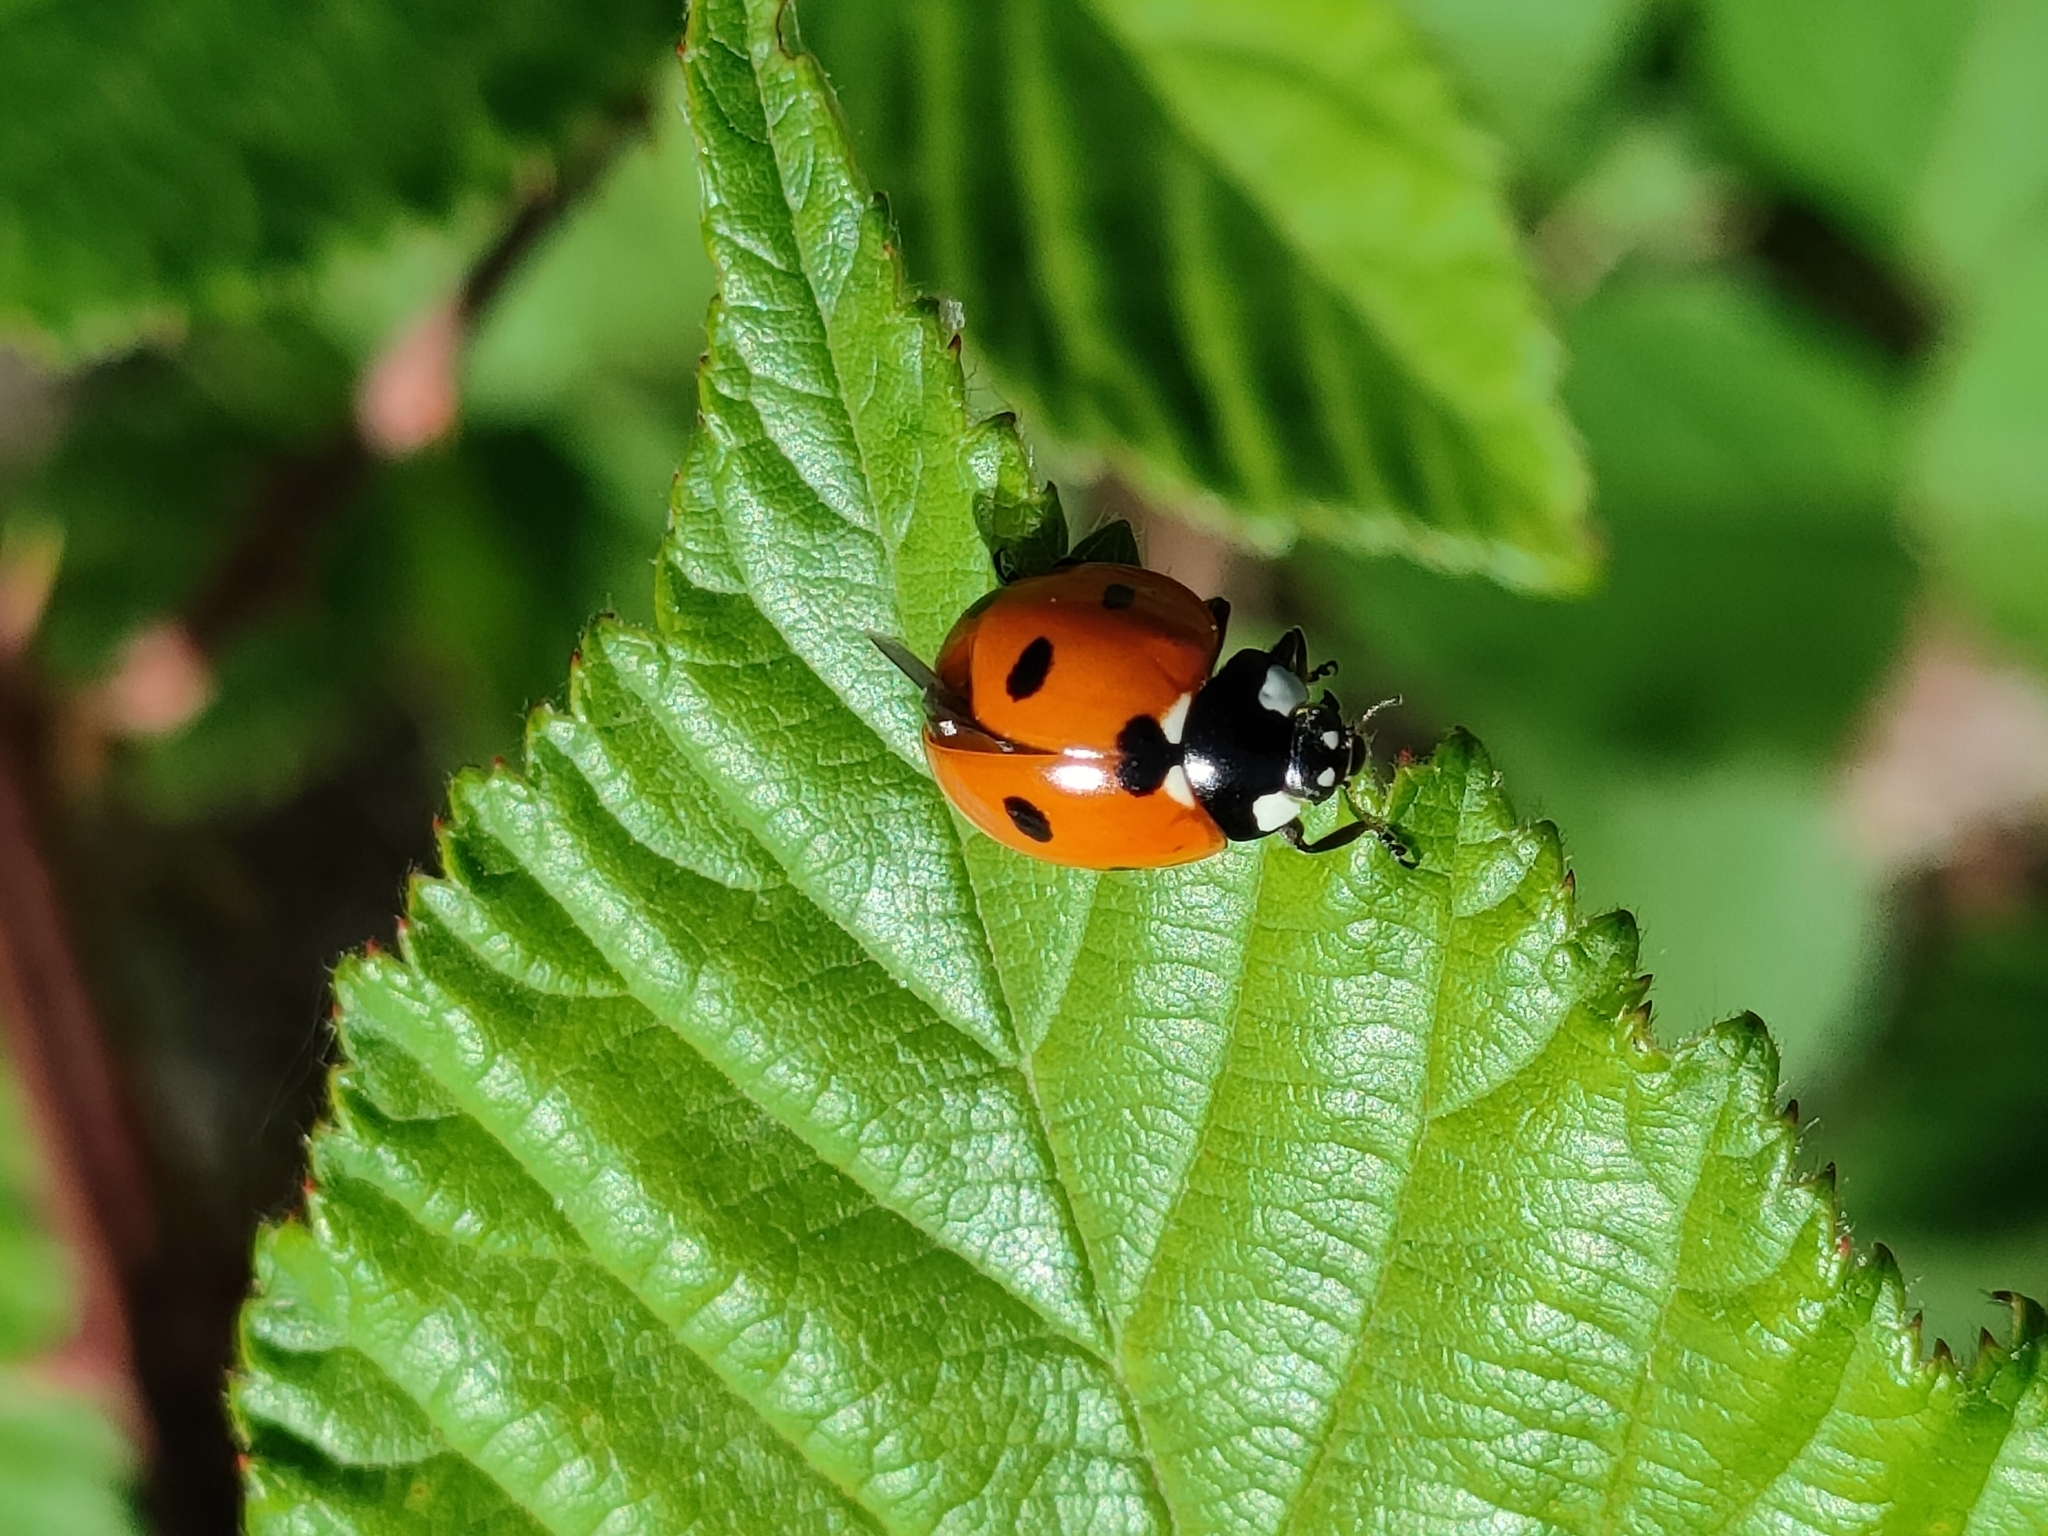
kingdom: Animalia
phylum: Arthropoda
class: Insecta
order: Coleoptera
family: Coccinellidae
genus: Coccinella
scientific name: Coccinella septempunctata
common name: Sevenspotted lady beetle
